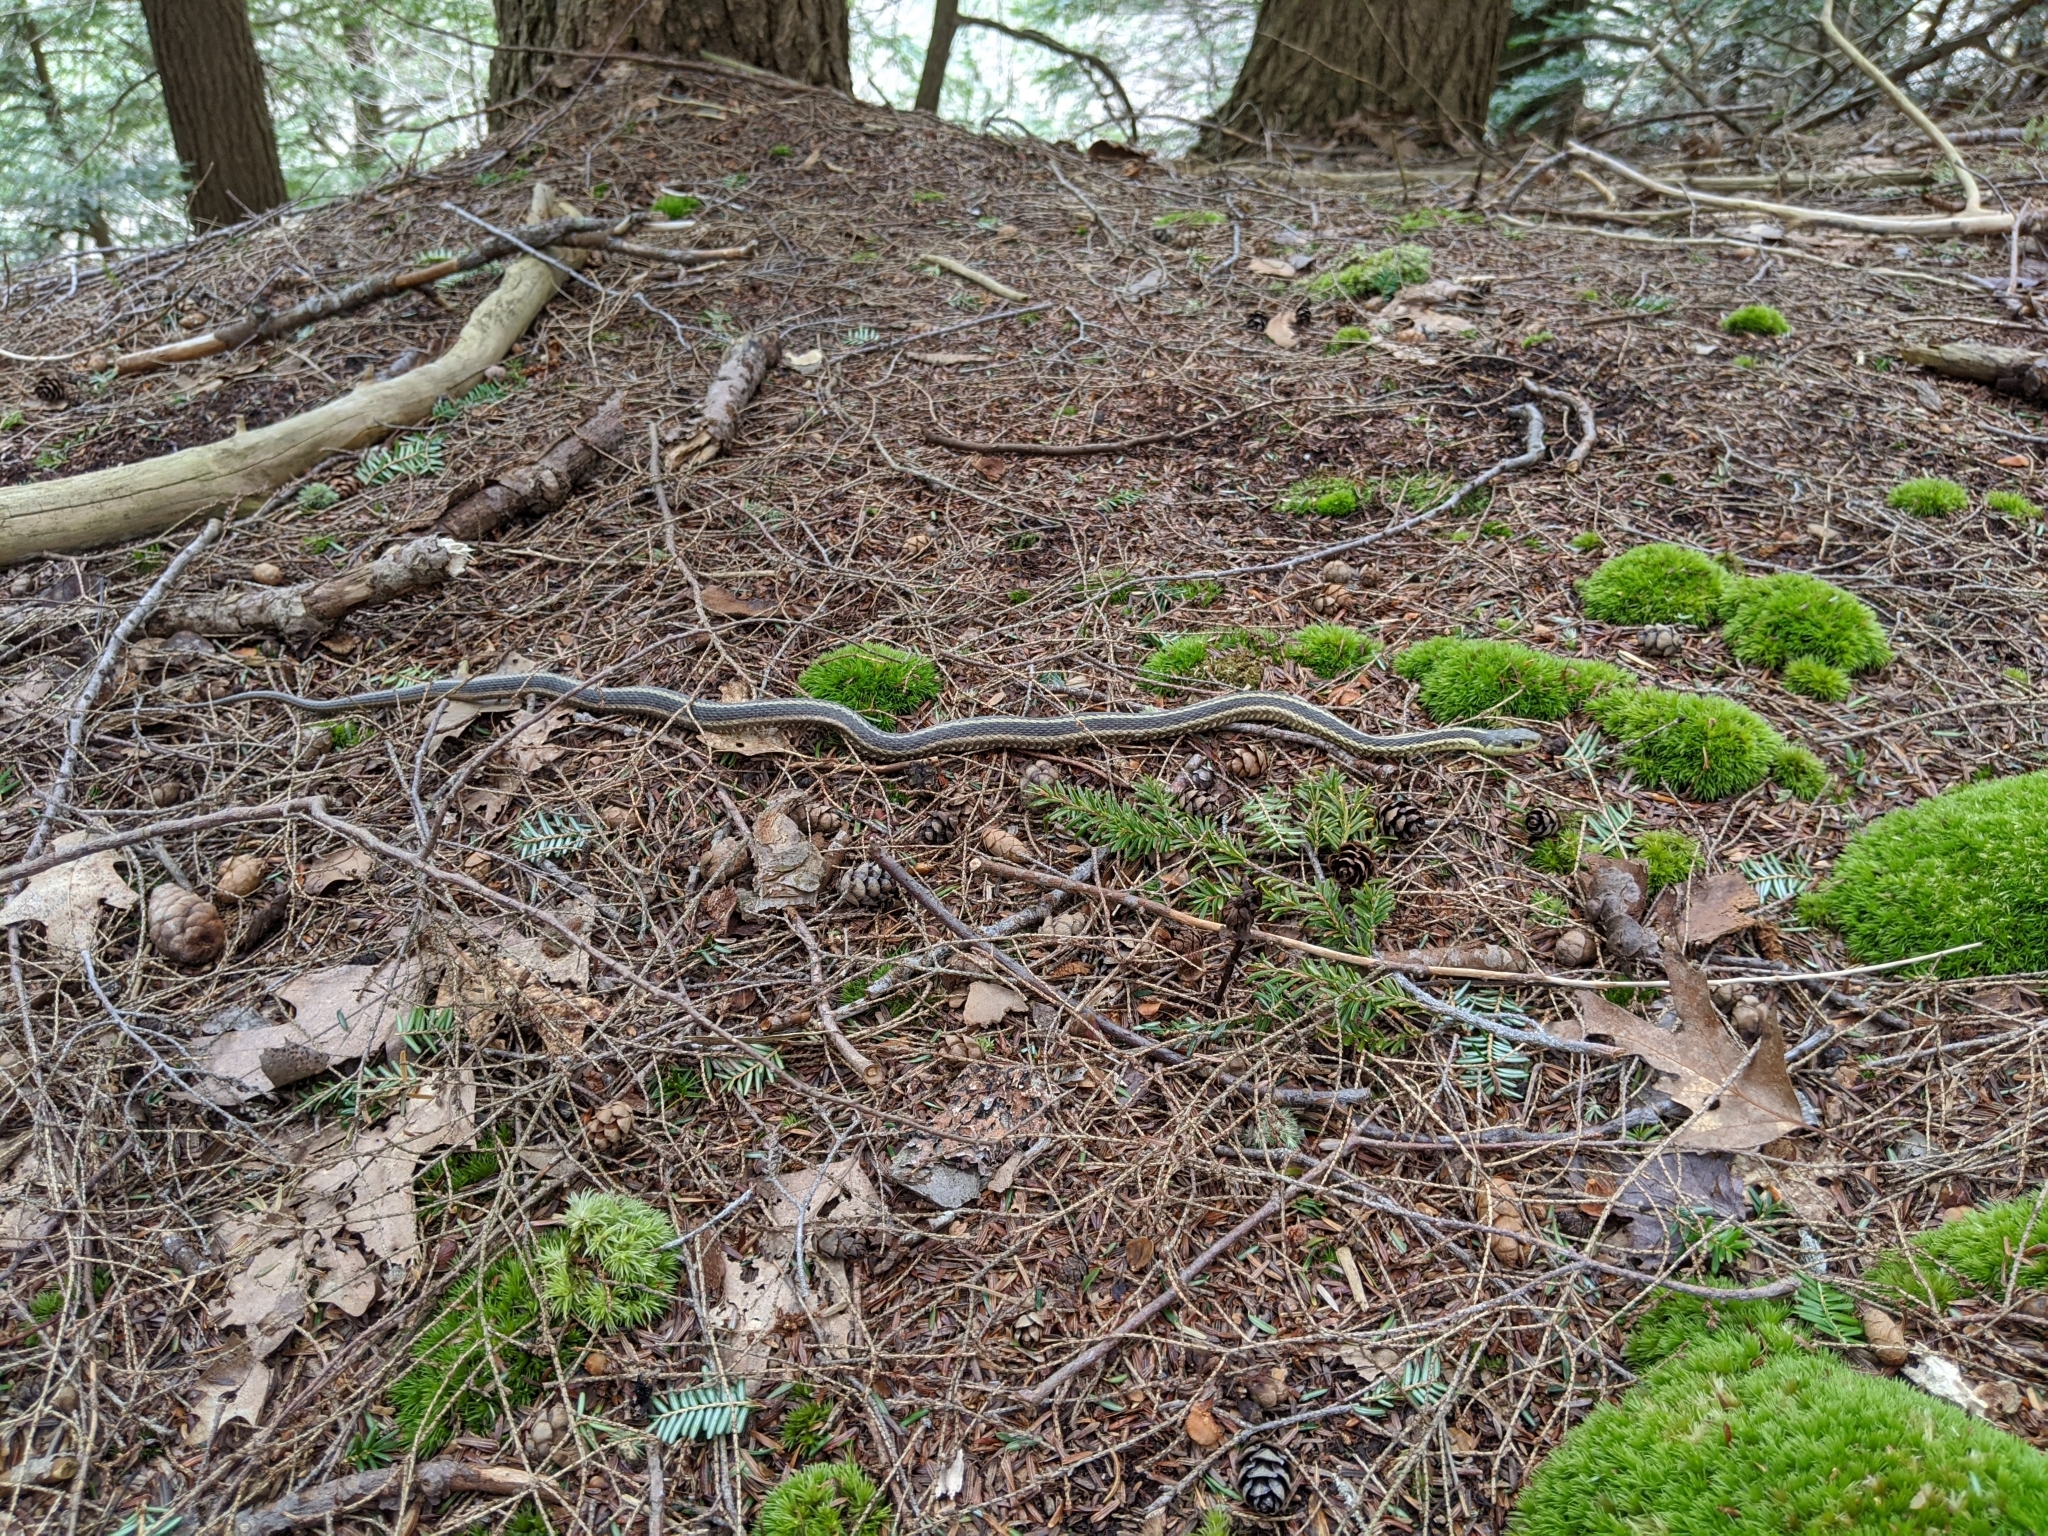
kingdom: Animalia
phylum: Chordata
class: Squamata
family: Colubridae
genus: Thamnophis
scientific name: Thamnophis sirtalis
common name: Common garter snake
